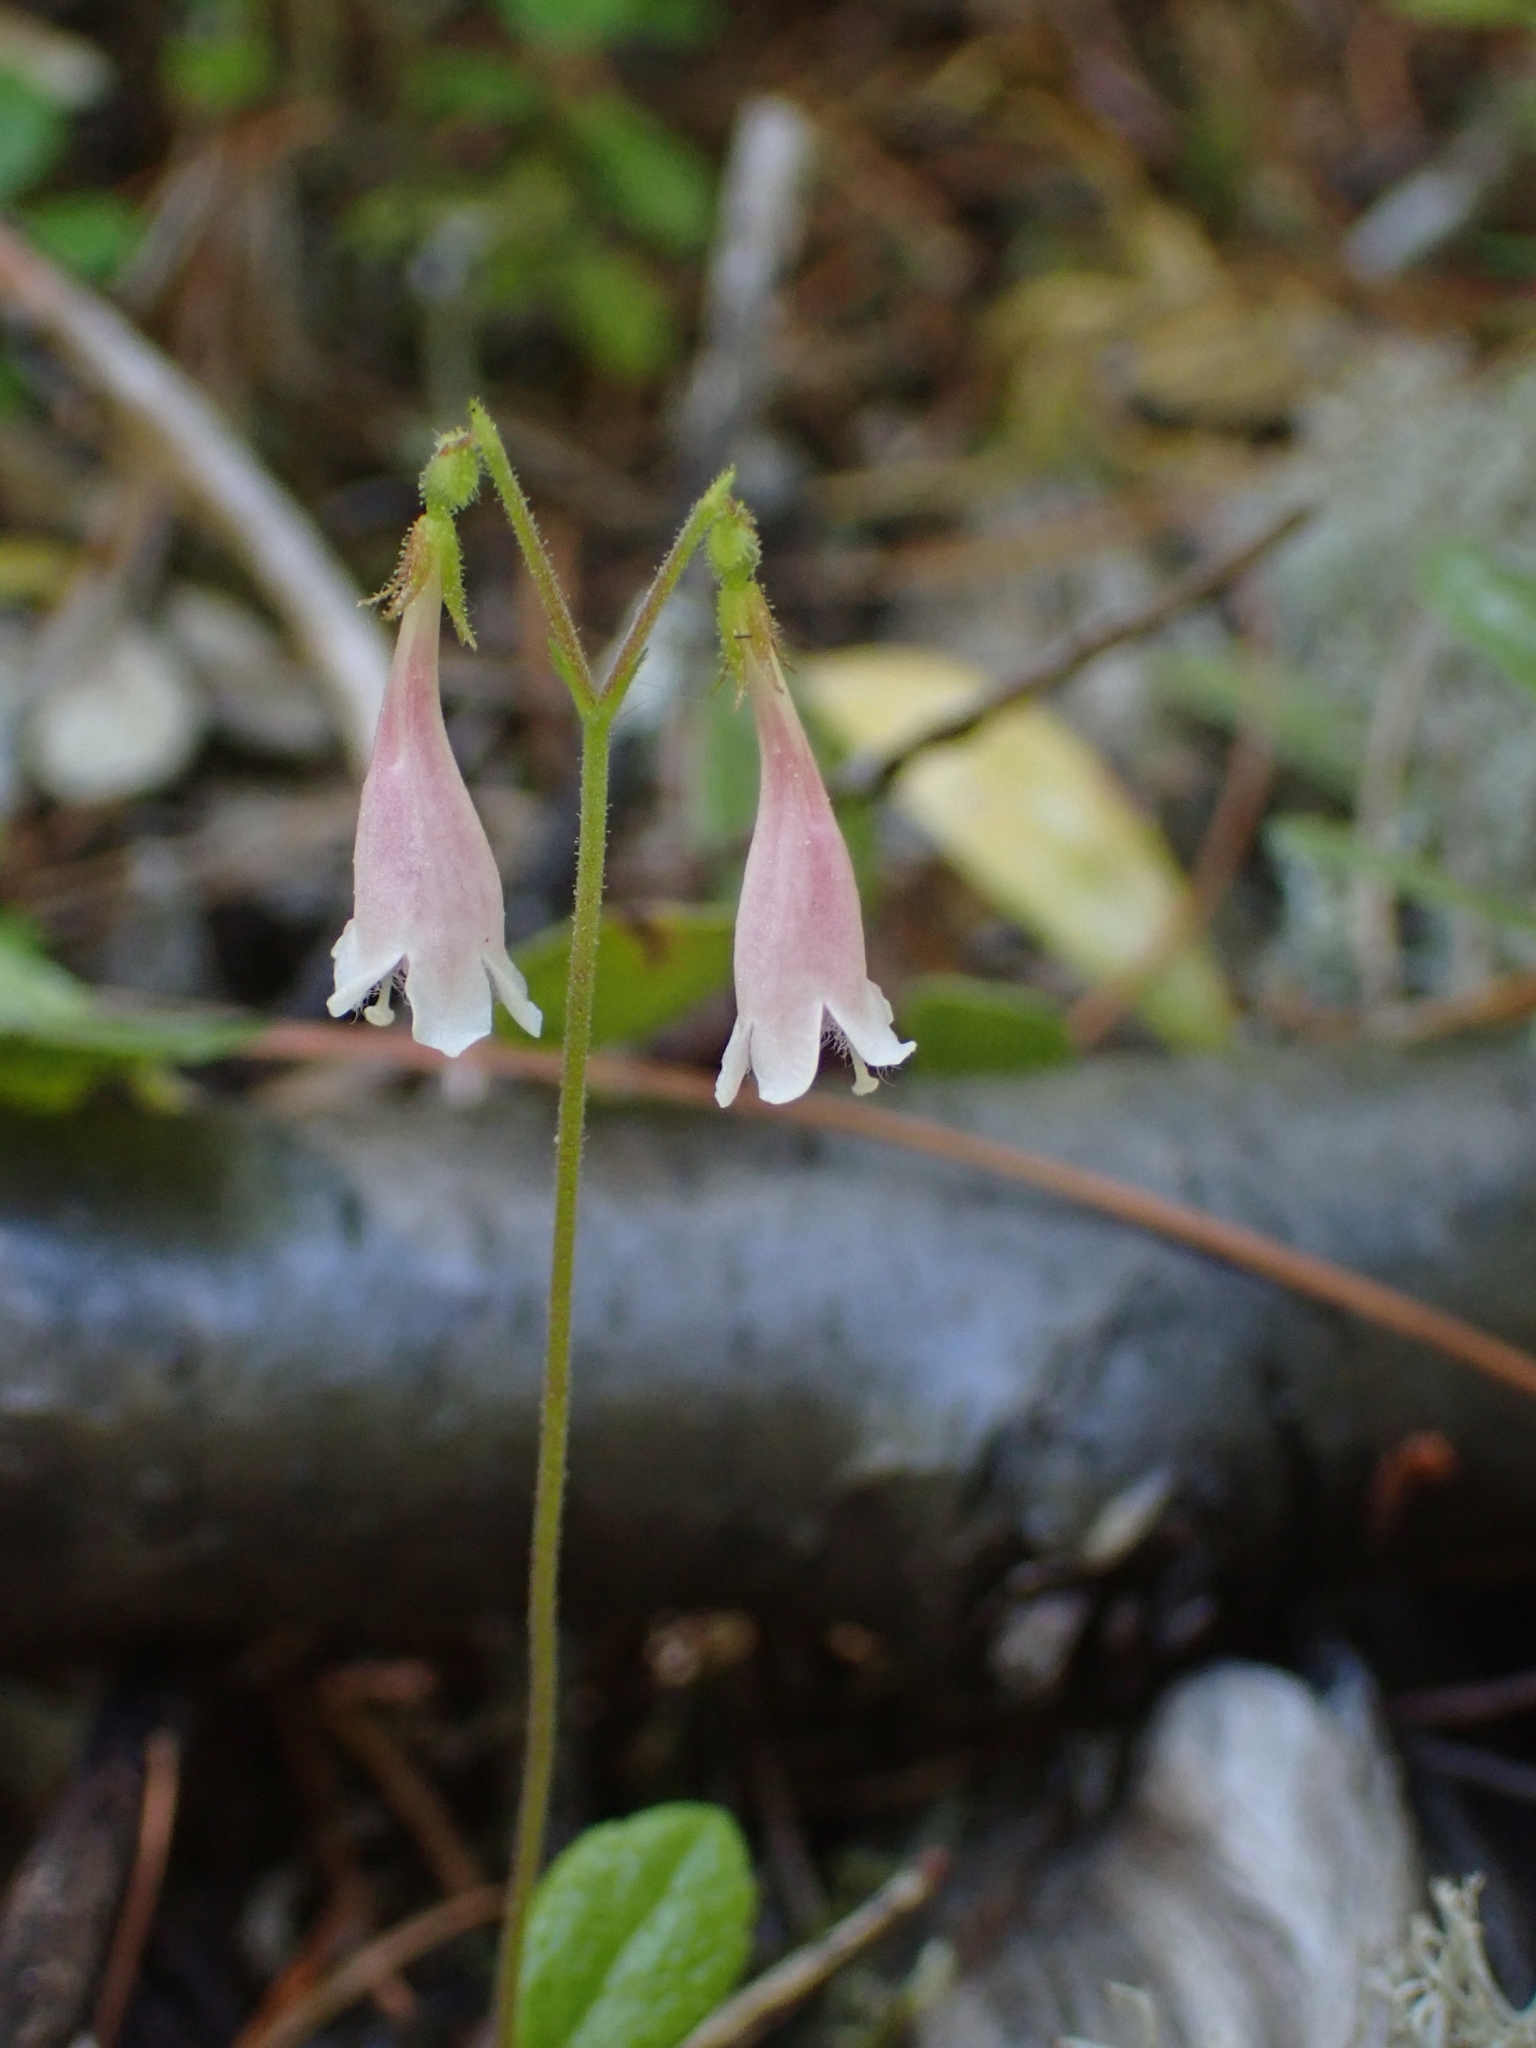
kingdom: Plantae
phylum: Tracheophyta
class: Magnoliopsida
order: Dipsacales
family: Caprifoliaceae
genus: Linnaea
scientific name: Linnaea borealis
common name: Twinflower
